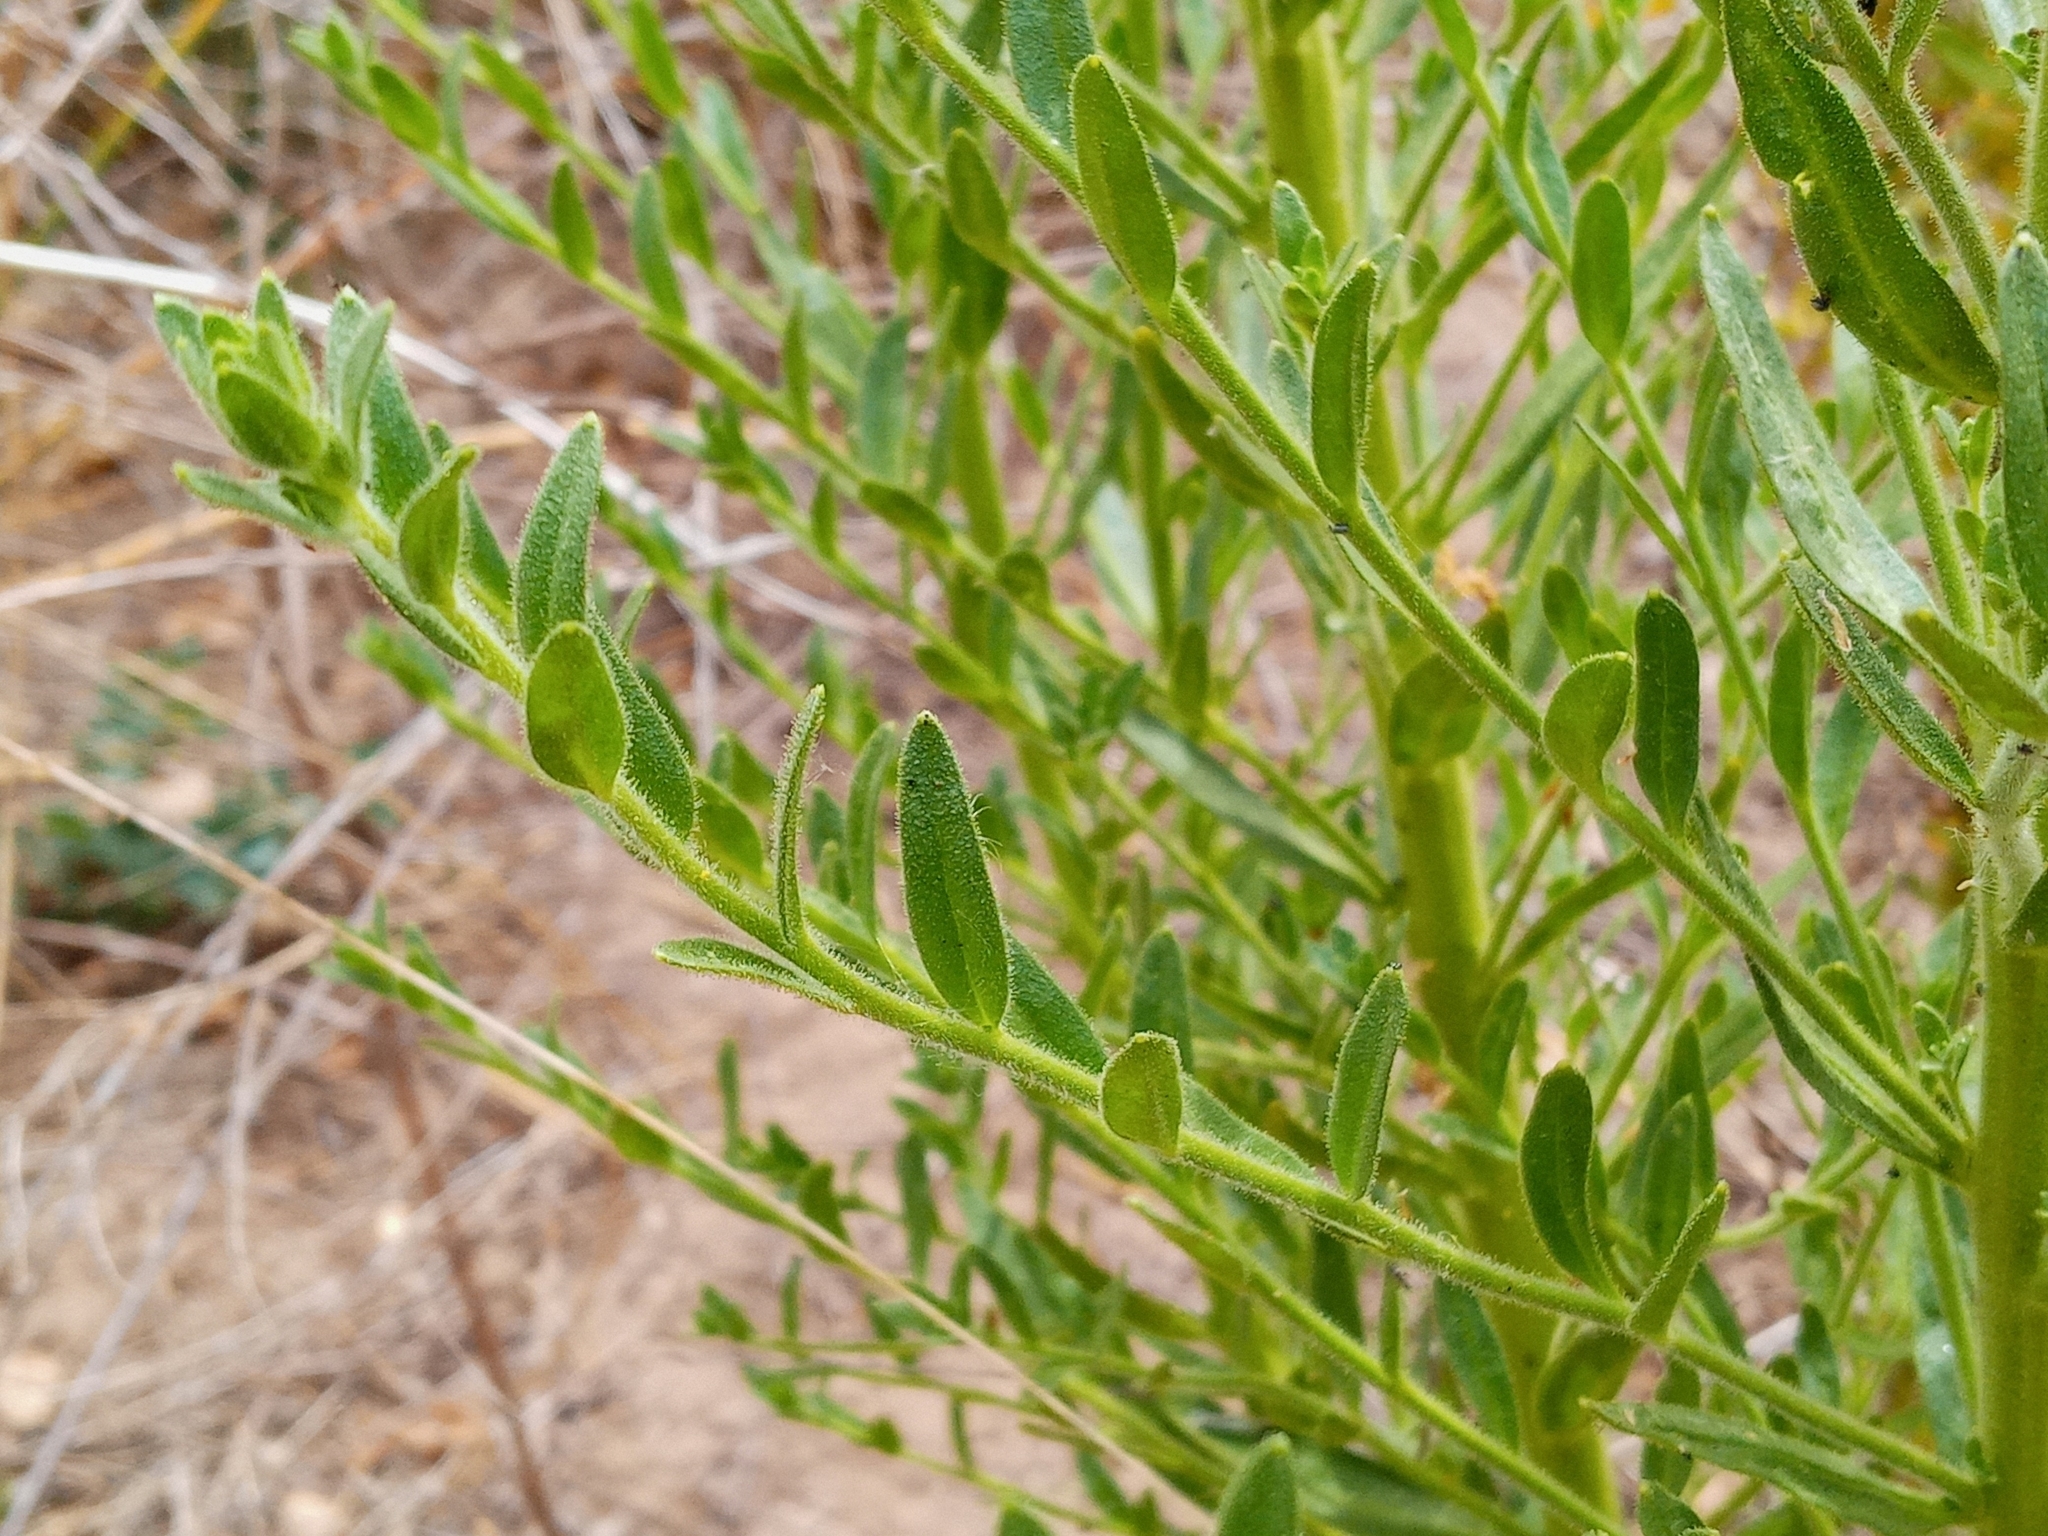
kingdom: Plantae
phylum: Tracheophyta
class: Magnoliopsida
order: Lamiales
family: Plantaginaceae
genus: Sairocarpus
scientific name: Sairocarpus multiflorus
